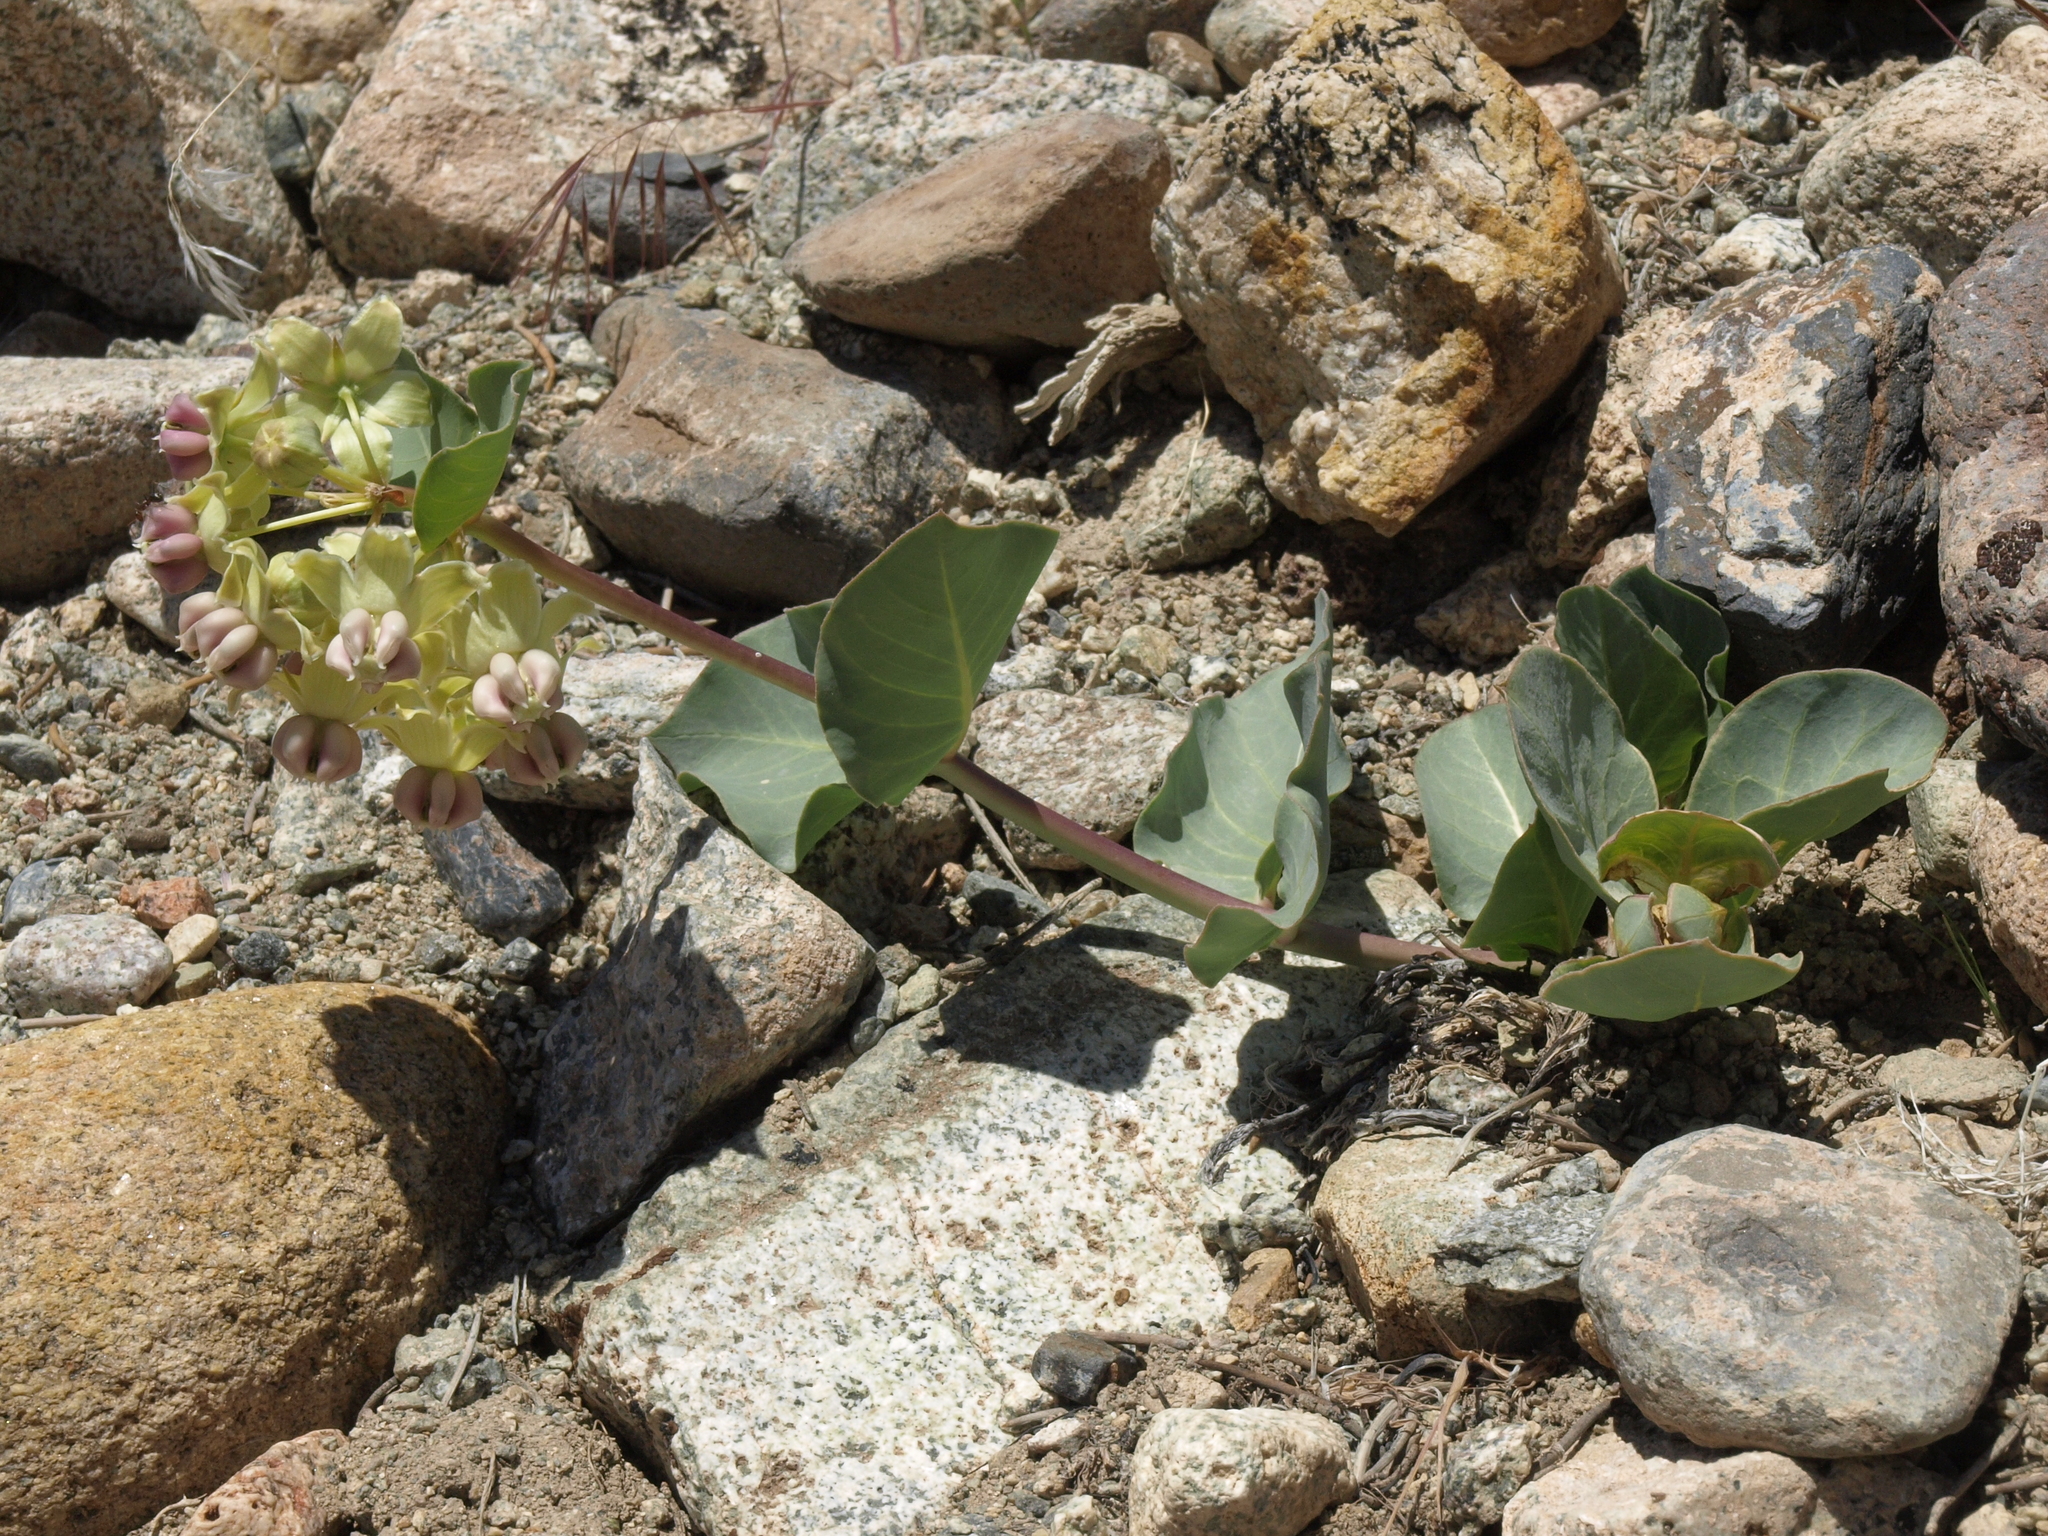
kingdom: Plantae
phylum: Tracheophyta
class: Magnoliopsida
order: Gentianales
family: Apocynaceae
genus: Asclepias
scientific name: Asclepias cryptoceras
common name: Humboldt mountains milkweed
